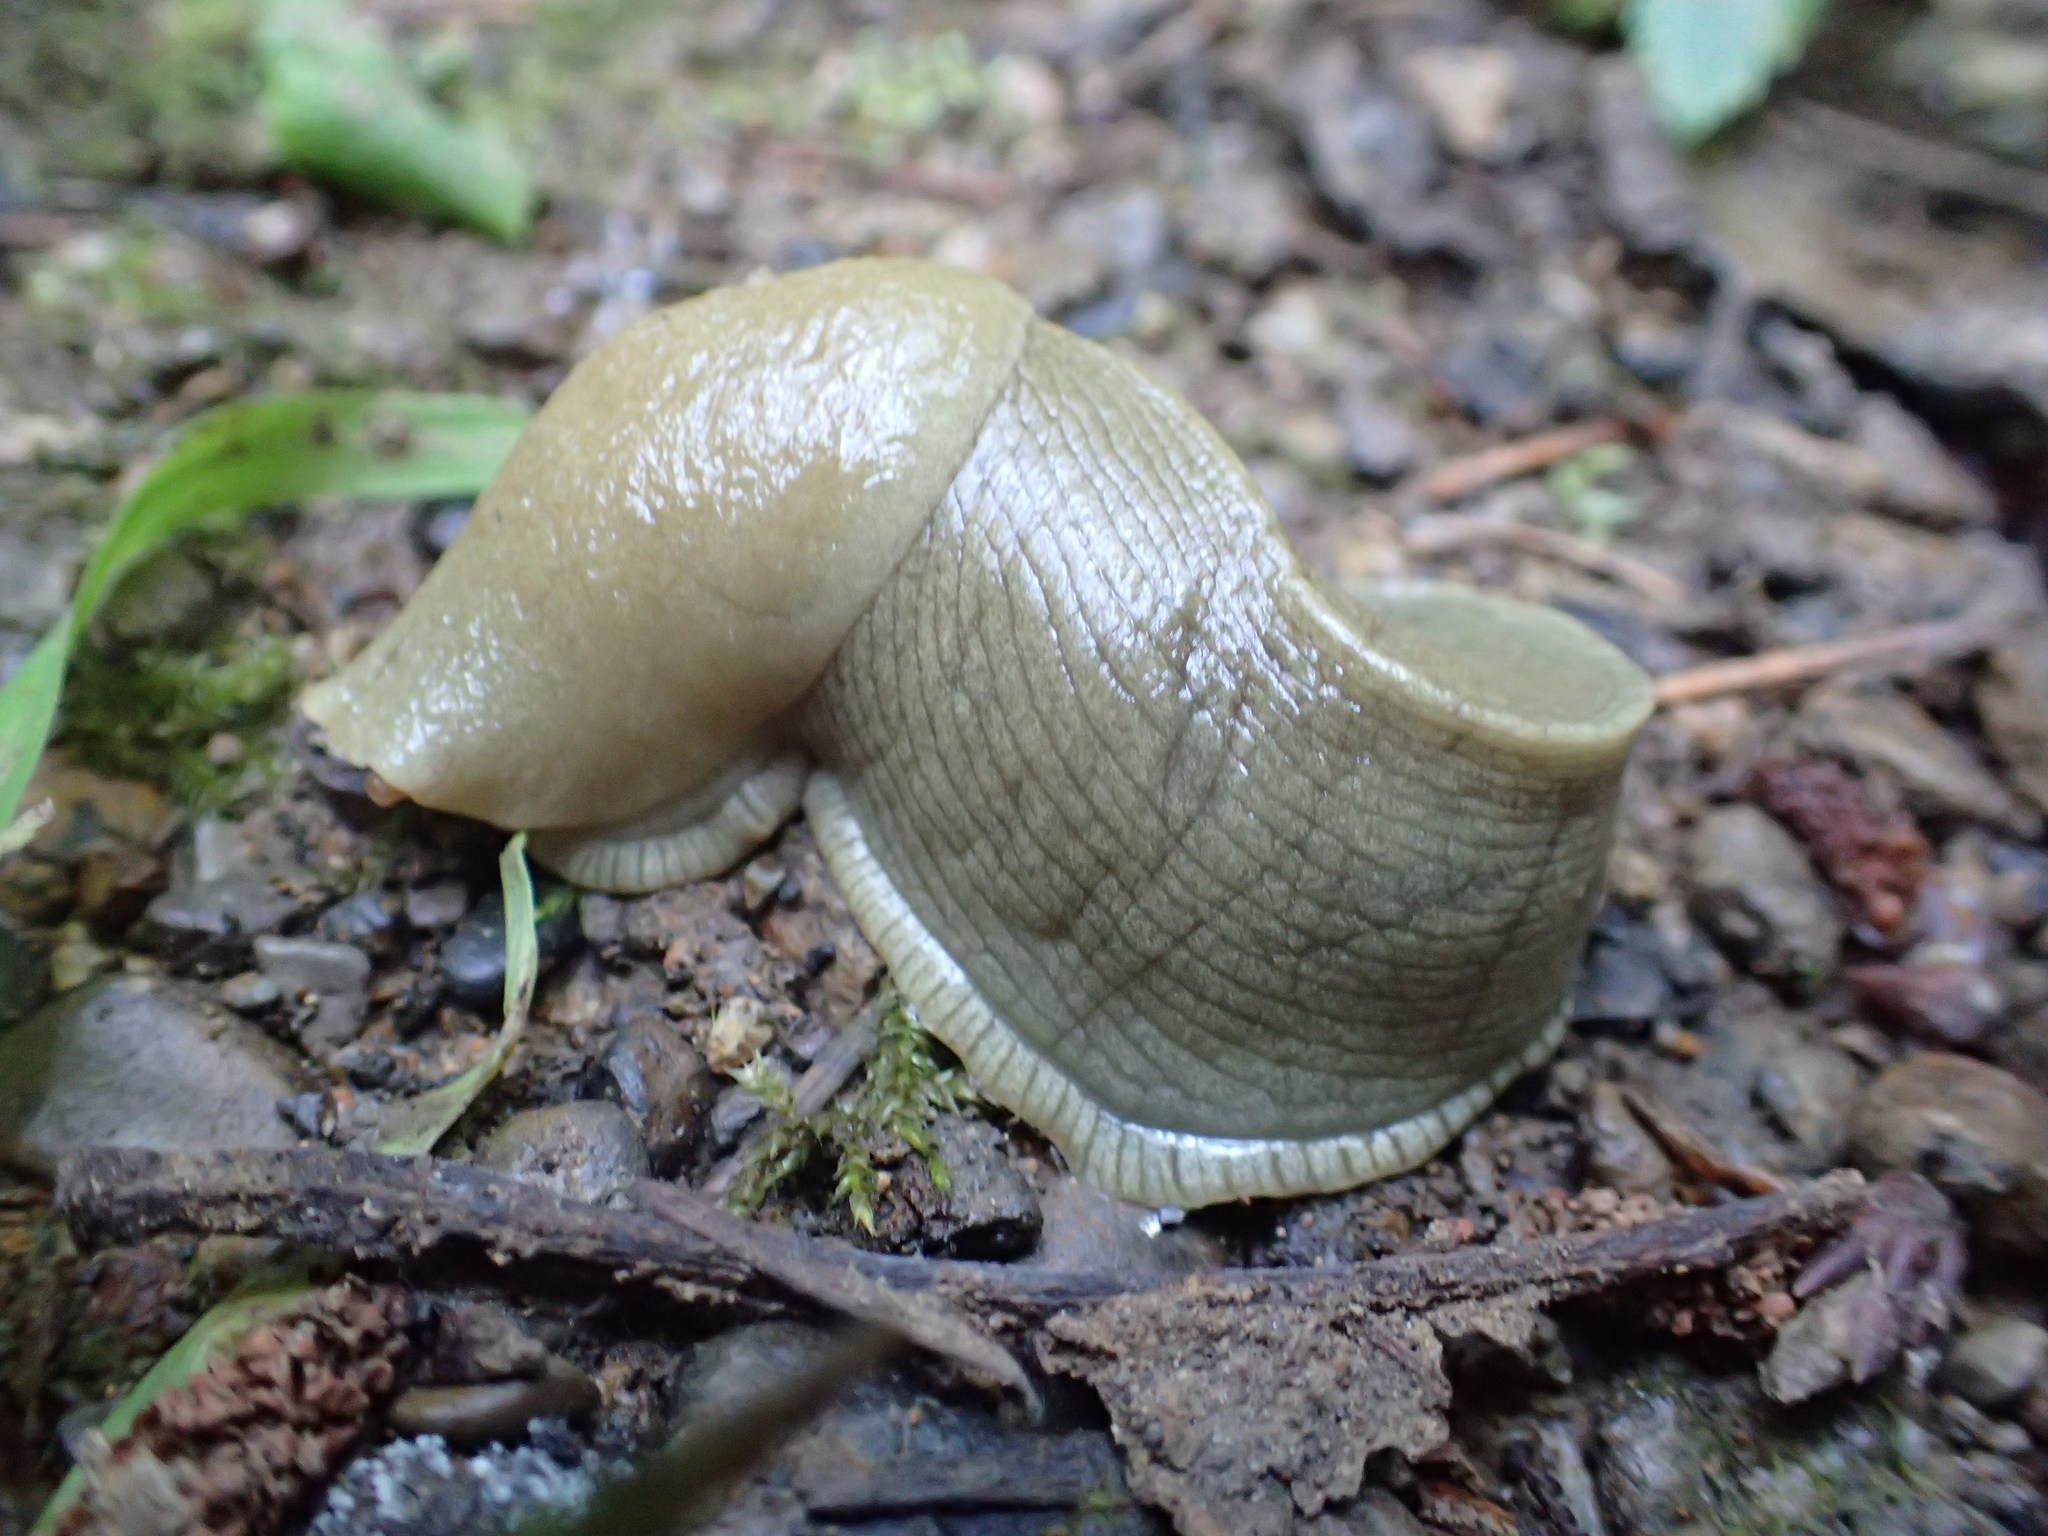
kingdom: Animalia
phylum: Mollusca
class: Gastropoda
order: Stylommatophora
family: Ariolimacidae
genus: Ariolimax
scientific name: Ariolimax columbianus
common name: Pacific banana slug
